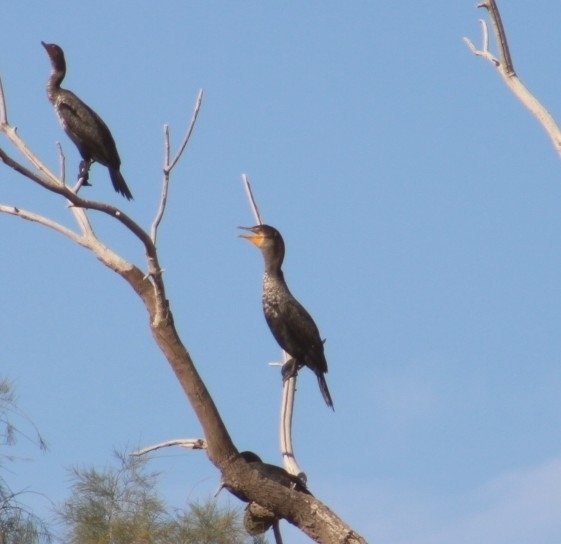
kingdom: Animalia
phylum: Chordata
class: Aves
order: Suliformes
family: Phalacrocoracidae
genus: Phalacrocorax
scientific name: Phalacrocorax auritus
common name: Double-crested cormorant
